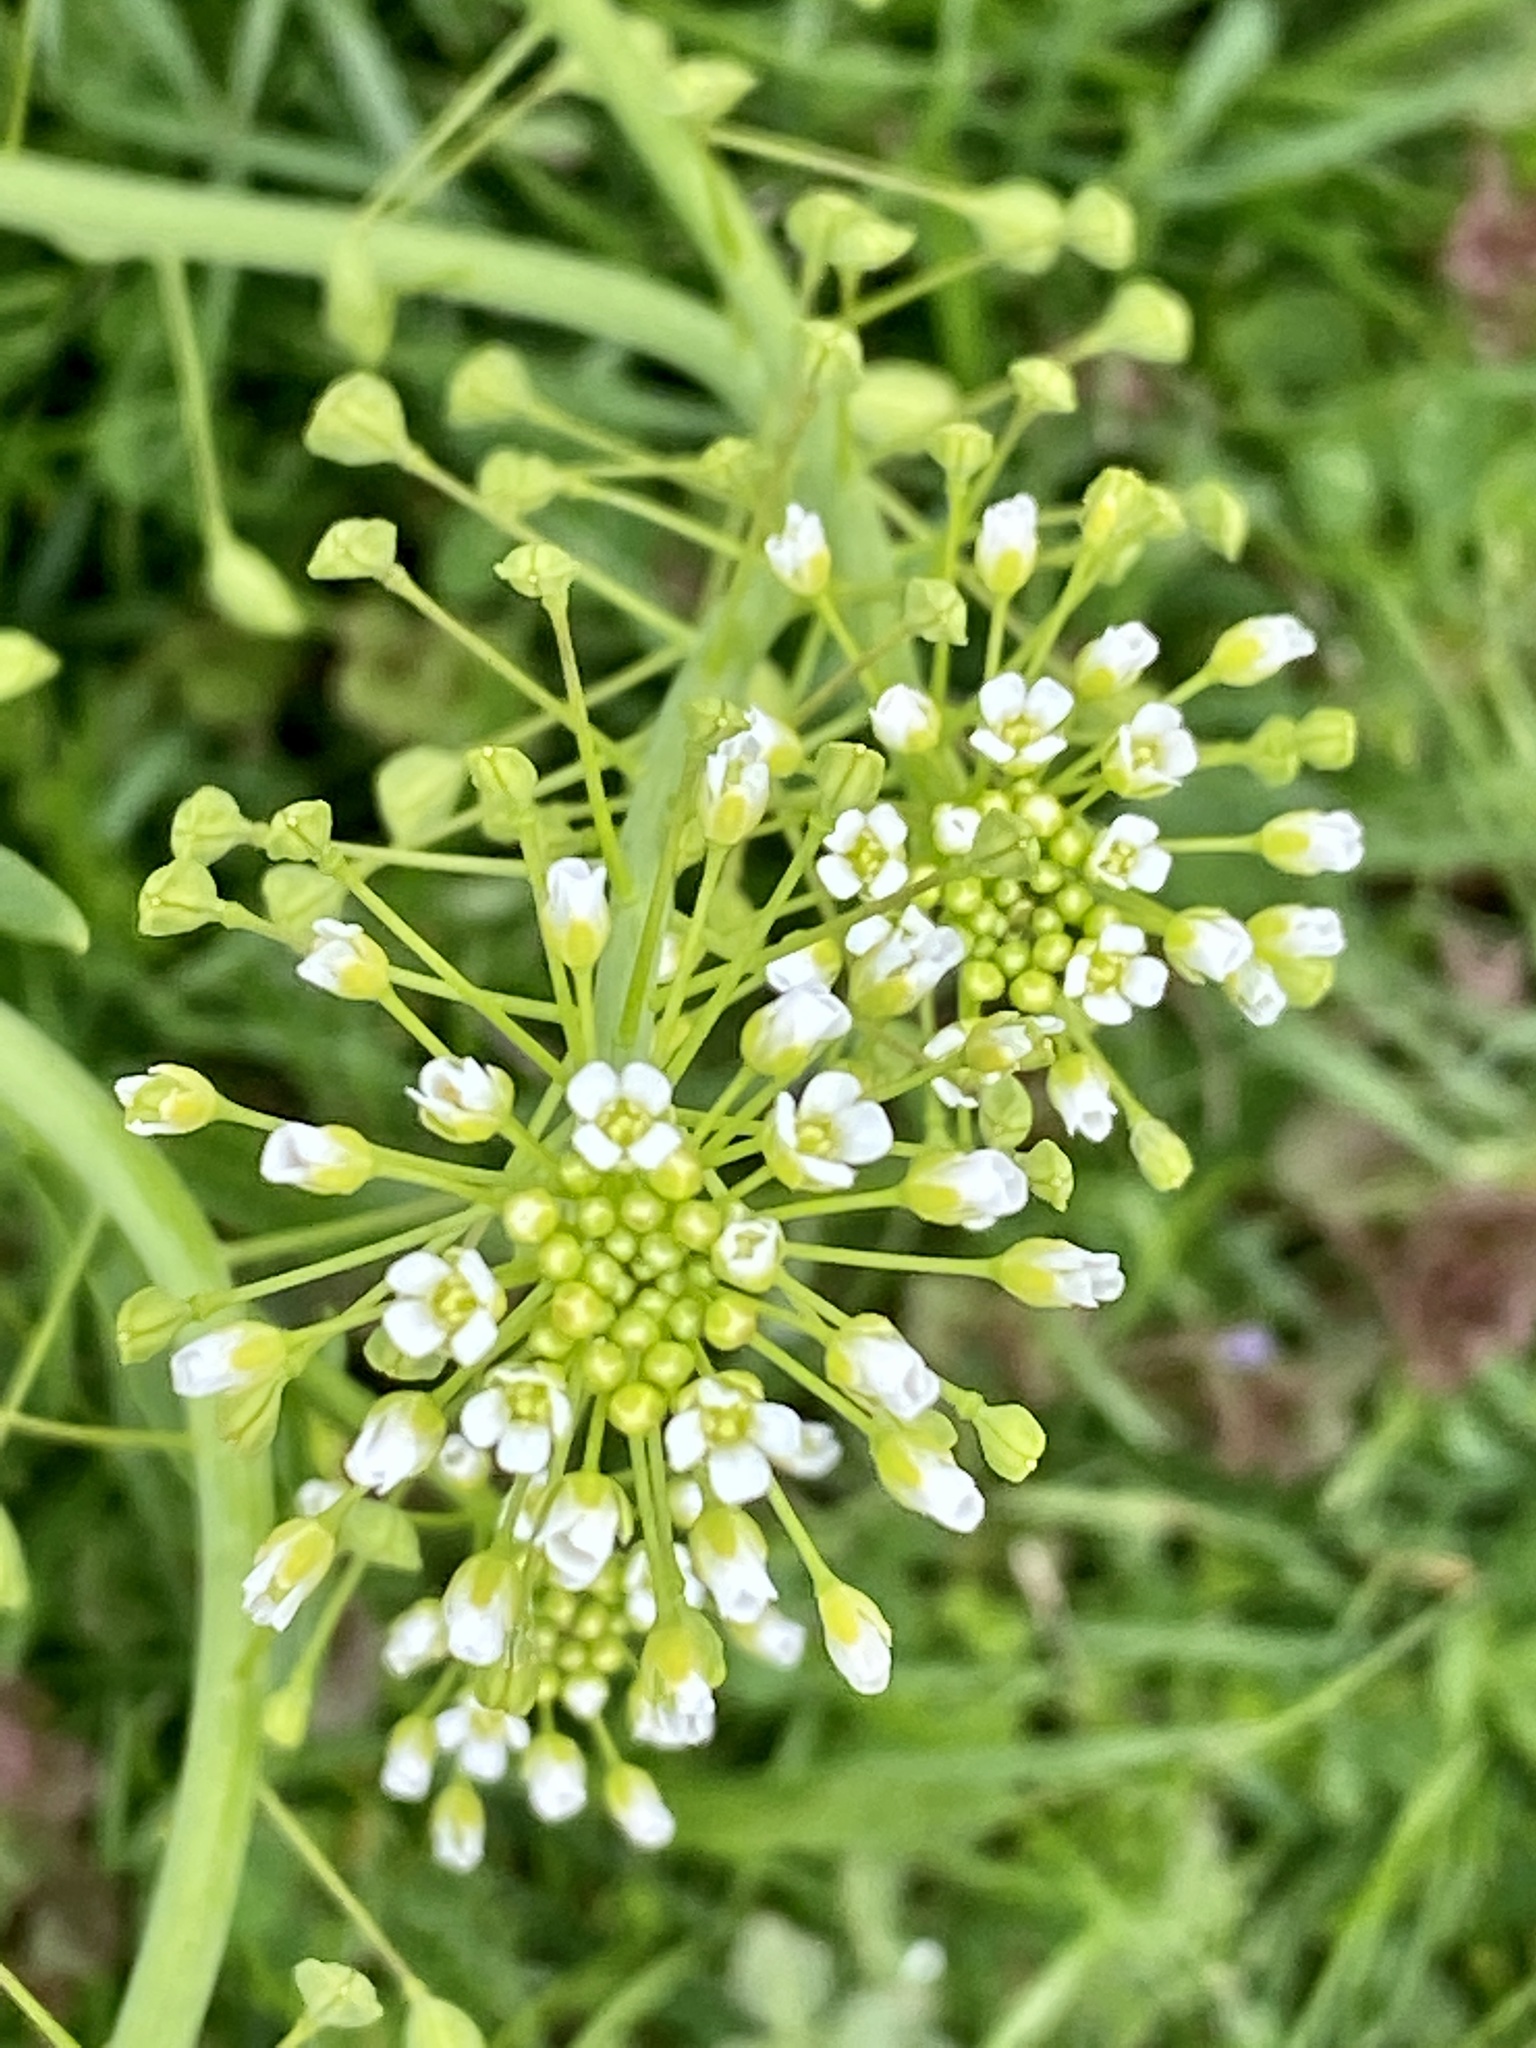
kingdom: Plantae
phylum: Tracheophyta
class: Magnoliopsida
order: Brassicales
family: Brassicaceae
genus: Mummenhoffia
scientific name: Mummenhoffia alliacea
